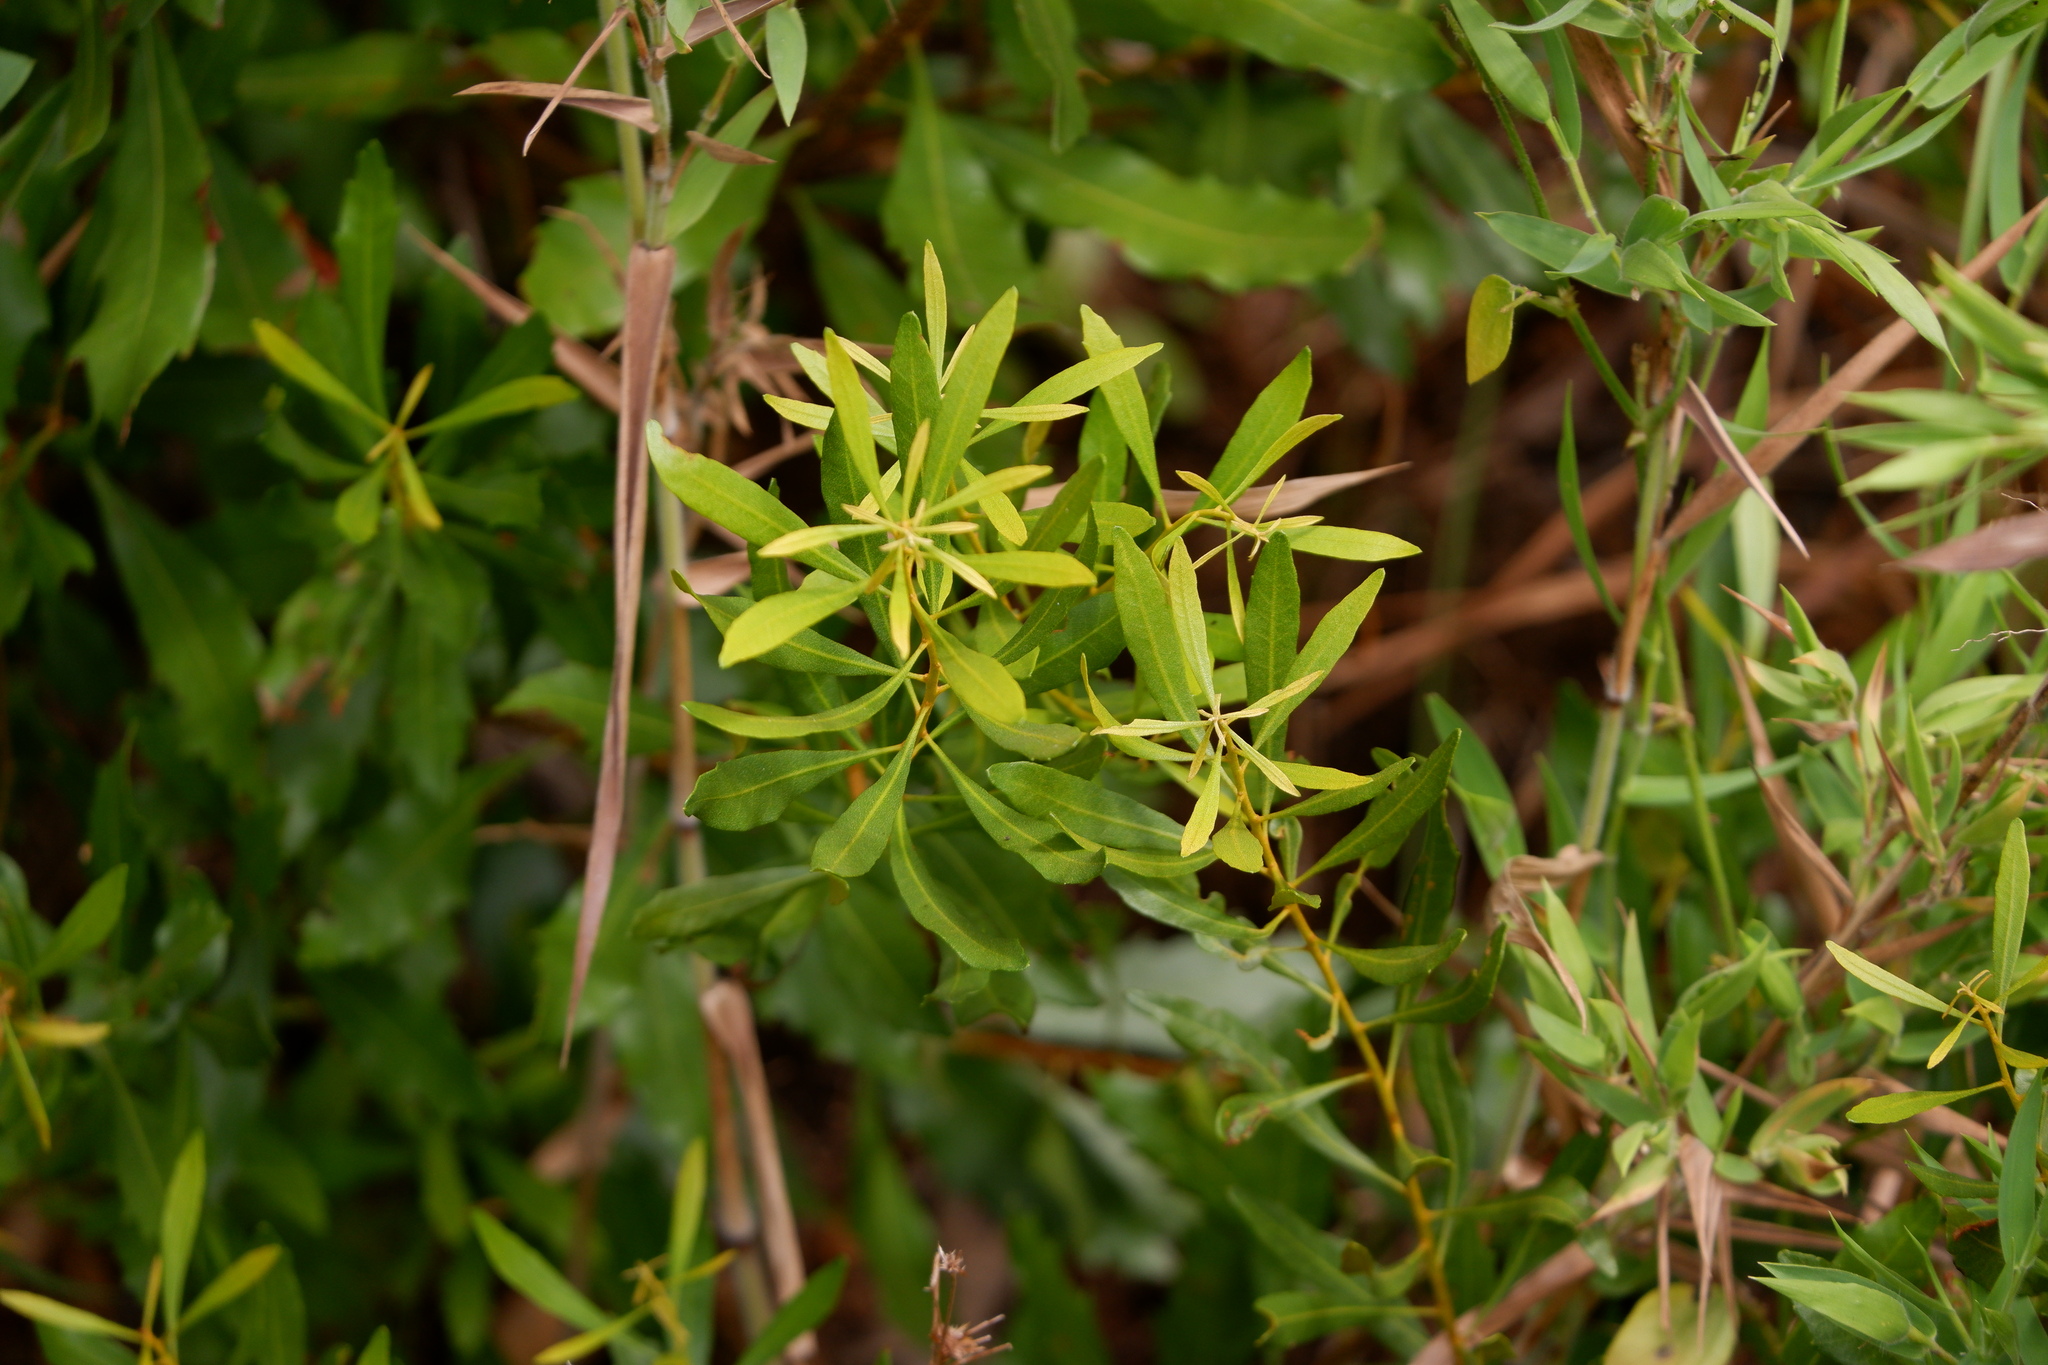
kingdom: Plantae
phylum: Tracheophyta
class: Magnoliopsida
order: Fagales
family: Myricaceae
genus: Morella
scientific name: Morella cerifera
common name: Wax myrtle
